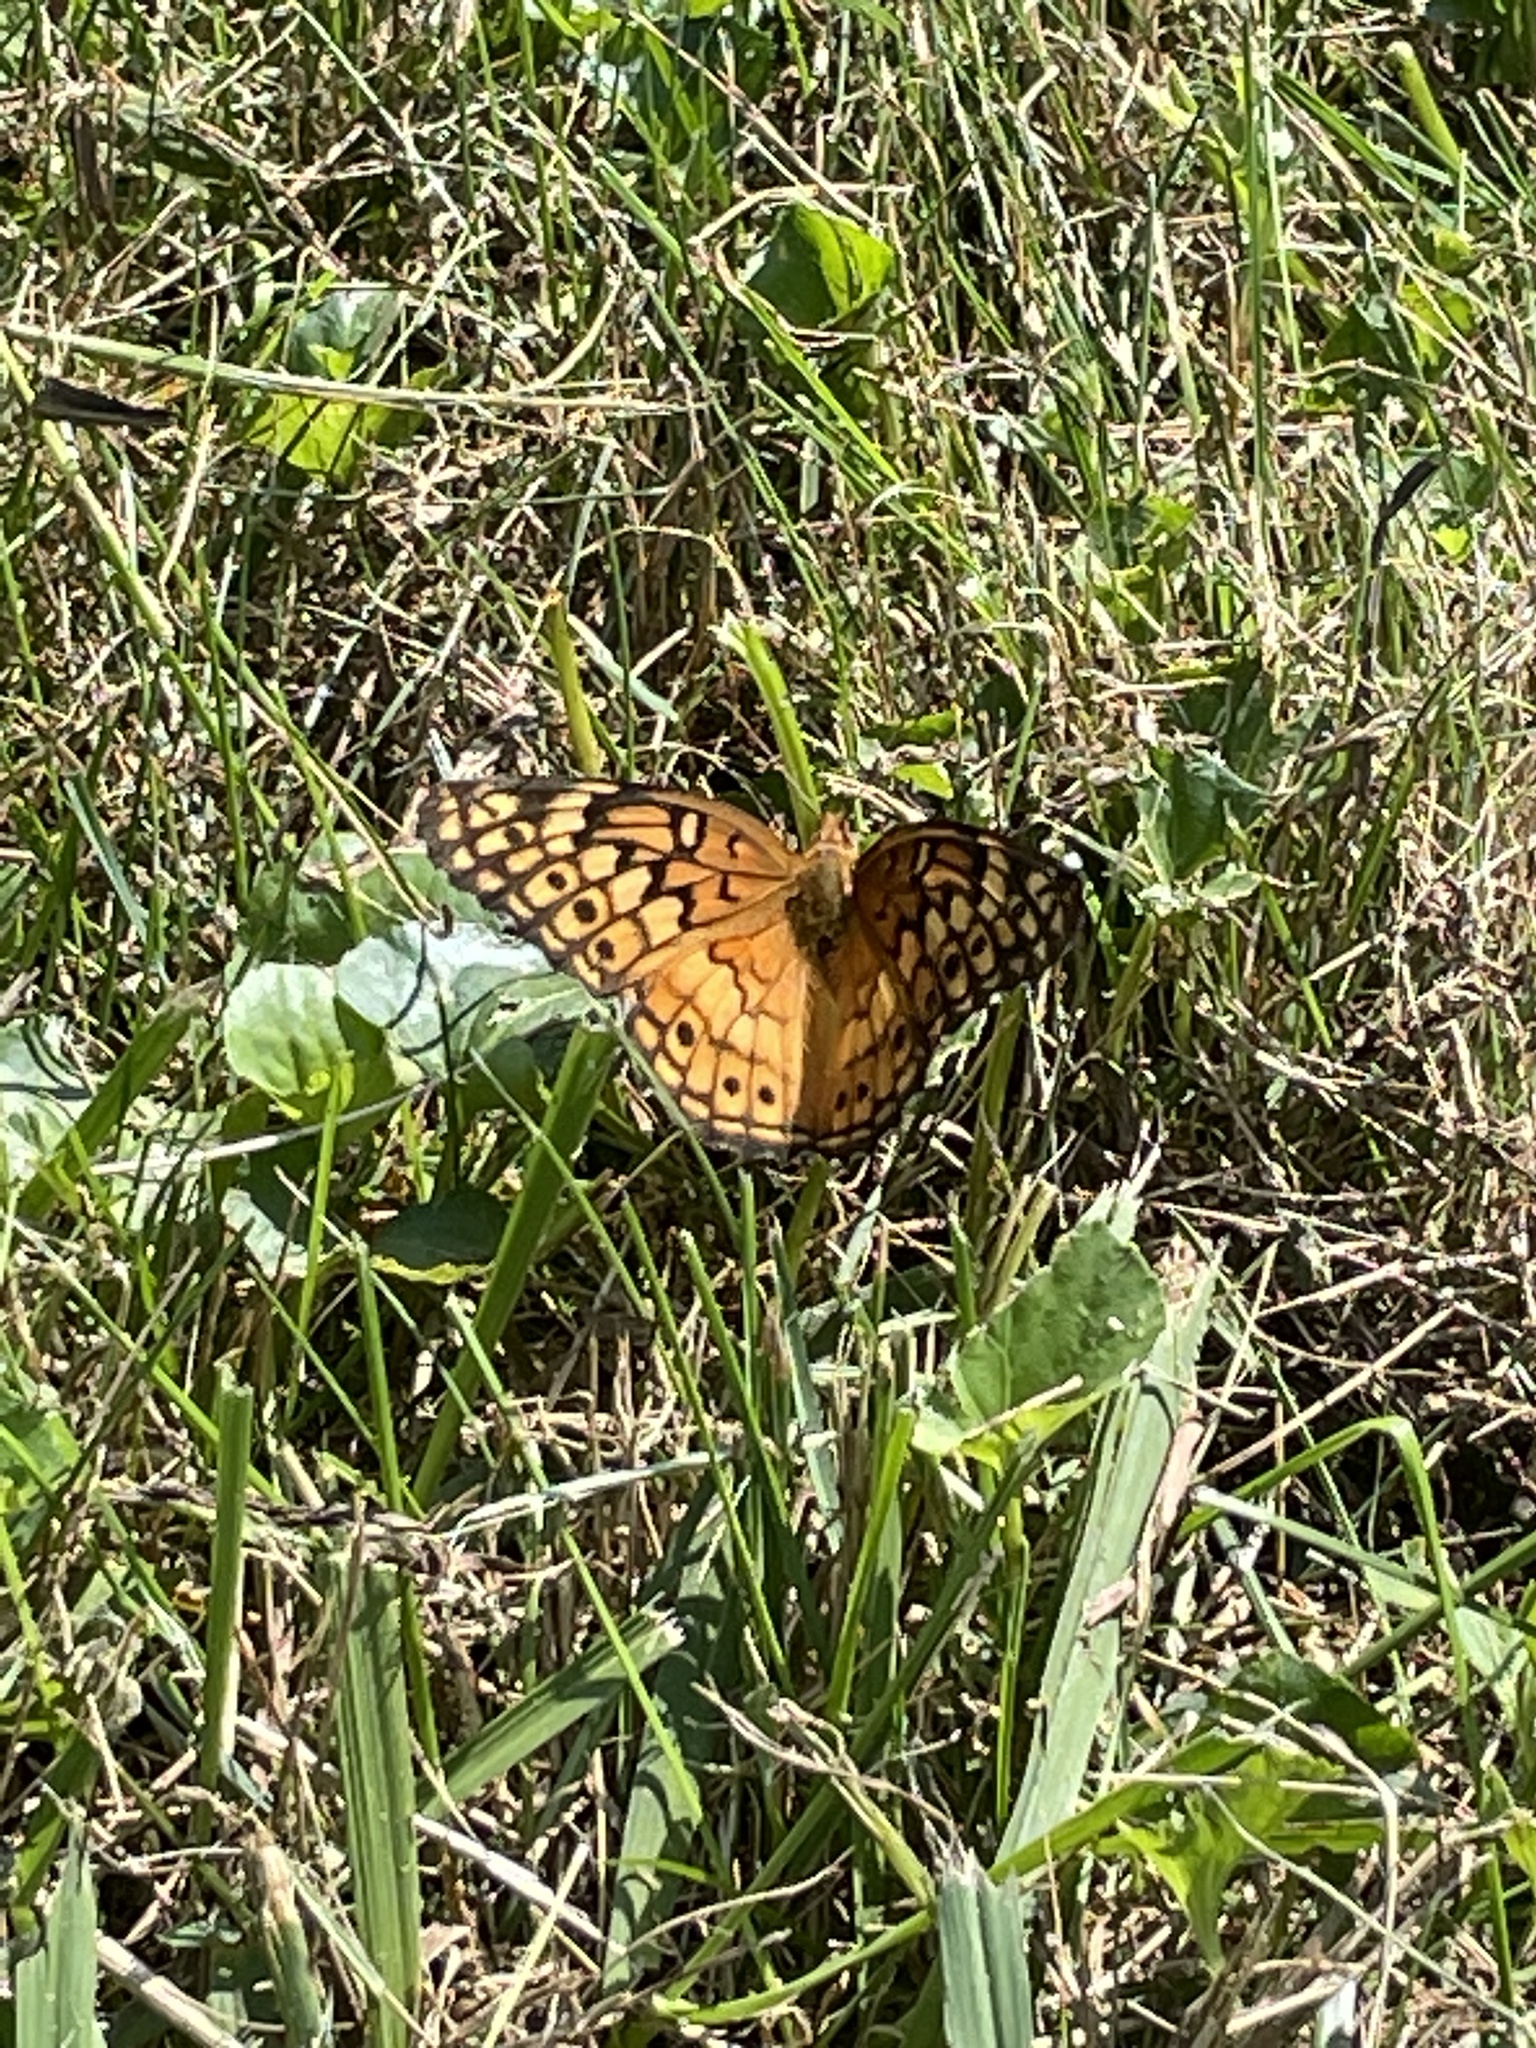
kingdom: Animalia
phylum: Arthropoda
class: Insecta
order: Lepidoptera
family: Nymphalidae
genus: Euptoieta
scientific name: Euptoieta claudia
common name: Variegated fritillary
